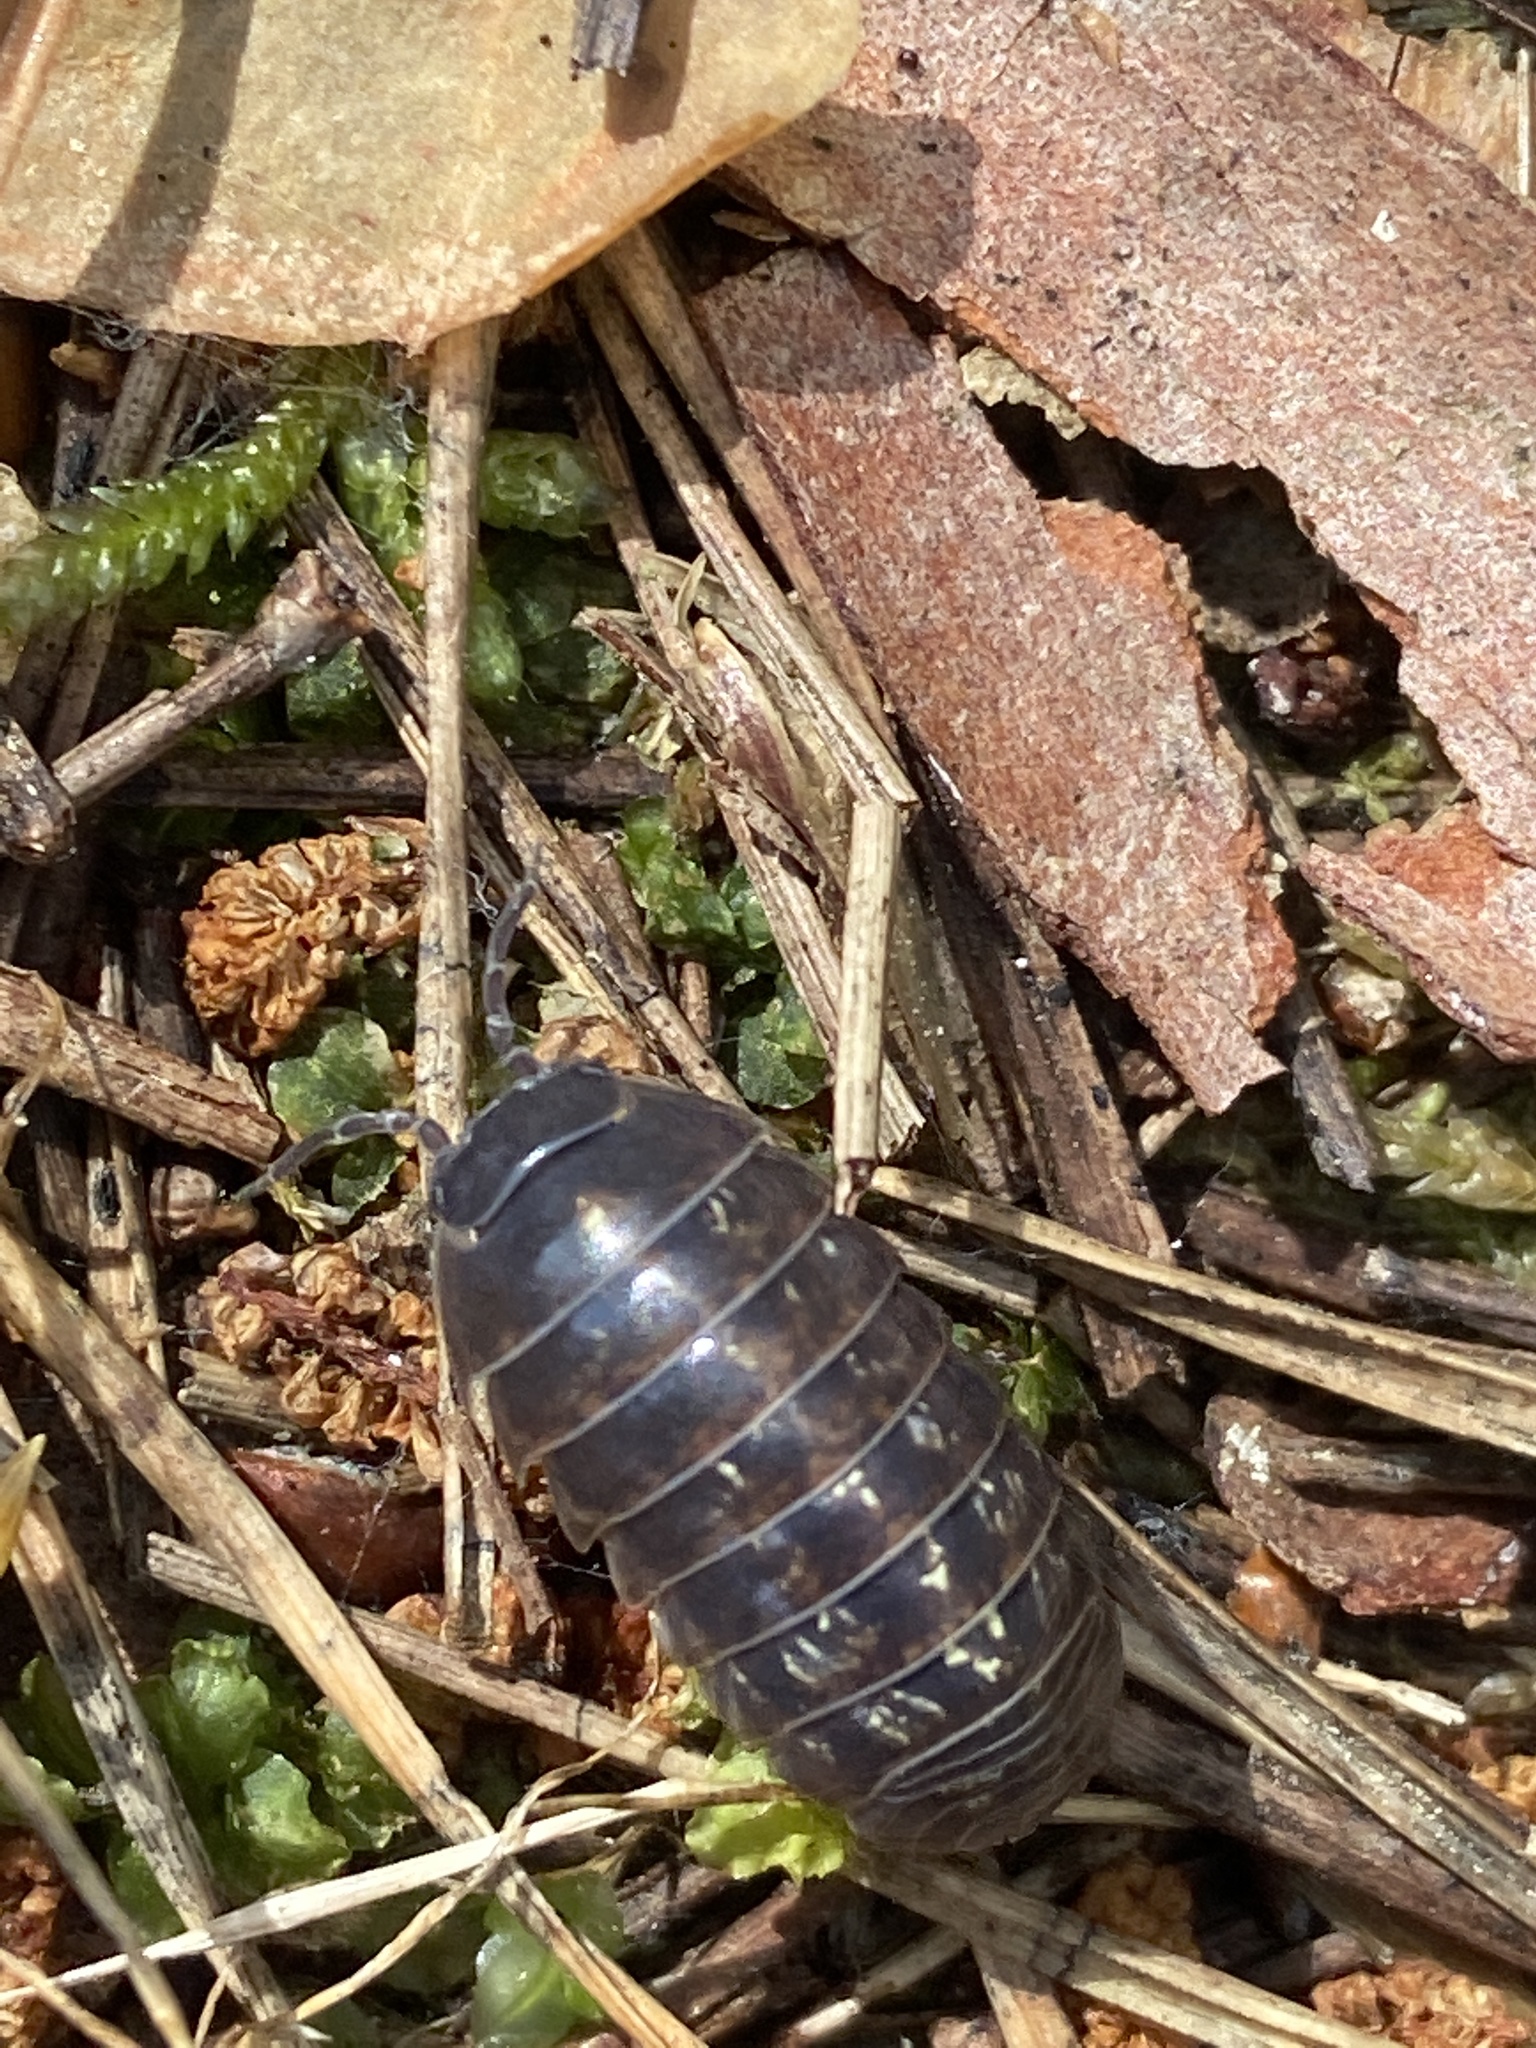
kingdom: Animalia
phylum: Arthropoda
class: Malacostraca
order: Isopoda
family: Armadillidiidae
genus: Armadillidium
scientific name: Armadillidium vulgare
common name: Common pill woodlouse
